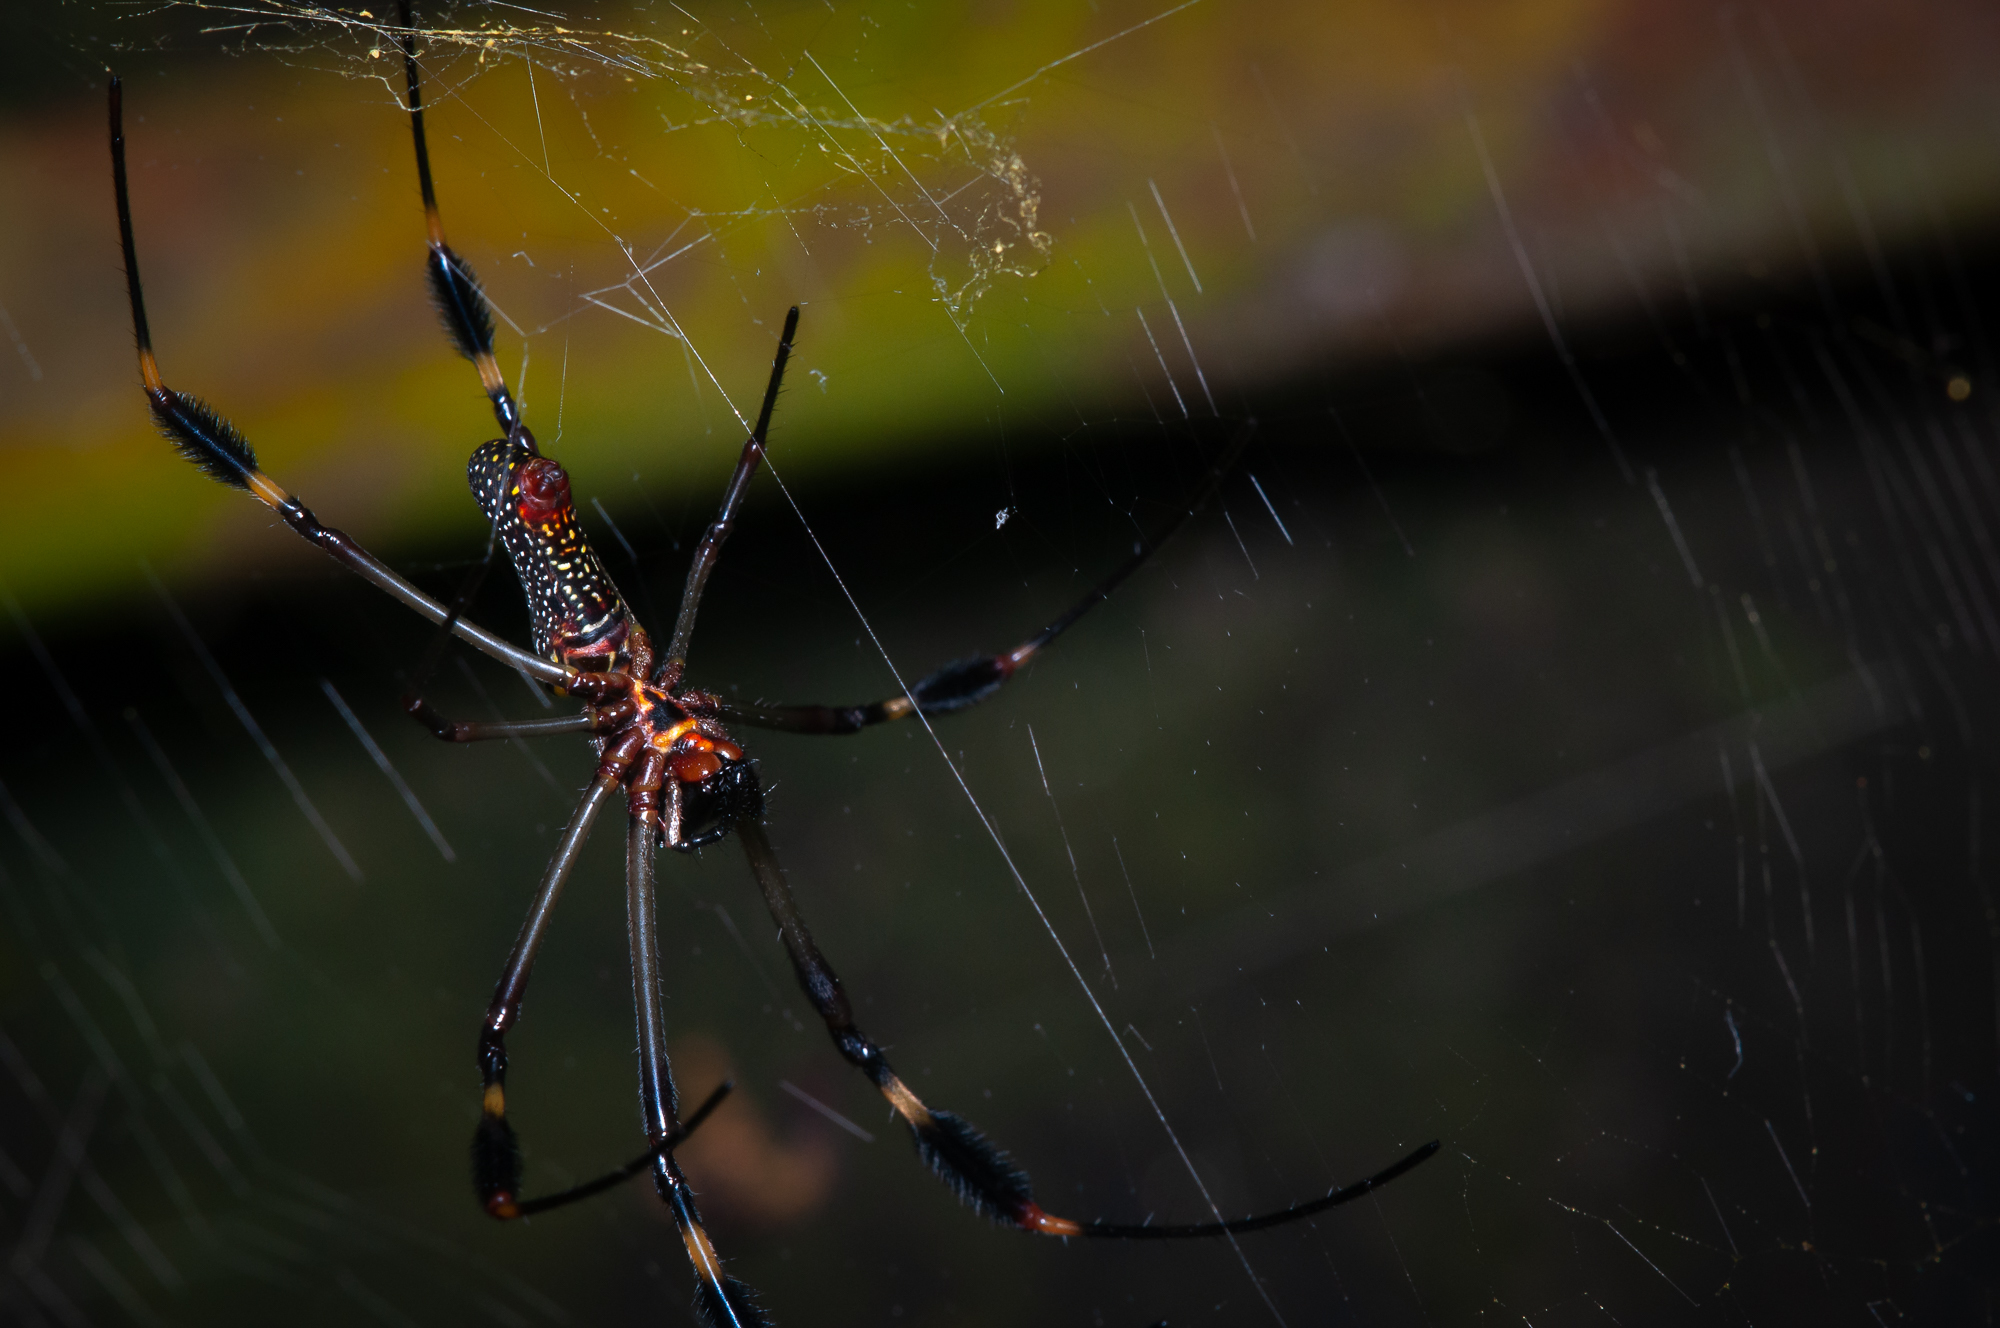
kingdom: Animalia
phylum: Arthropoda
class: Arachnida
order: Araneae
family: Araneidae
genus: Trichonephila
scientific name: Trichonephila clavipes
